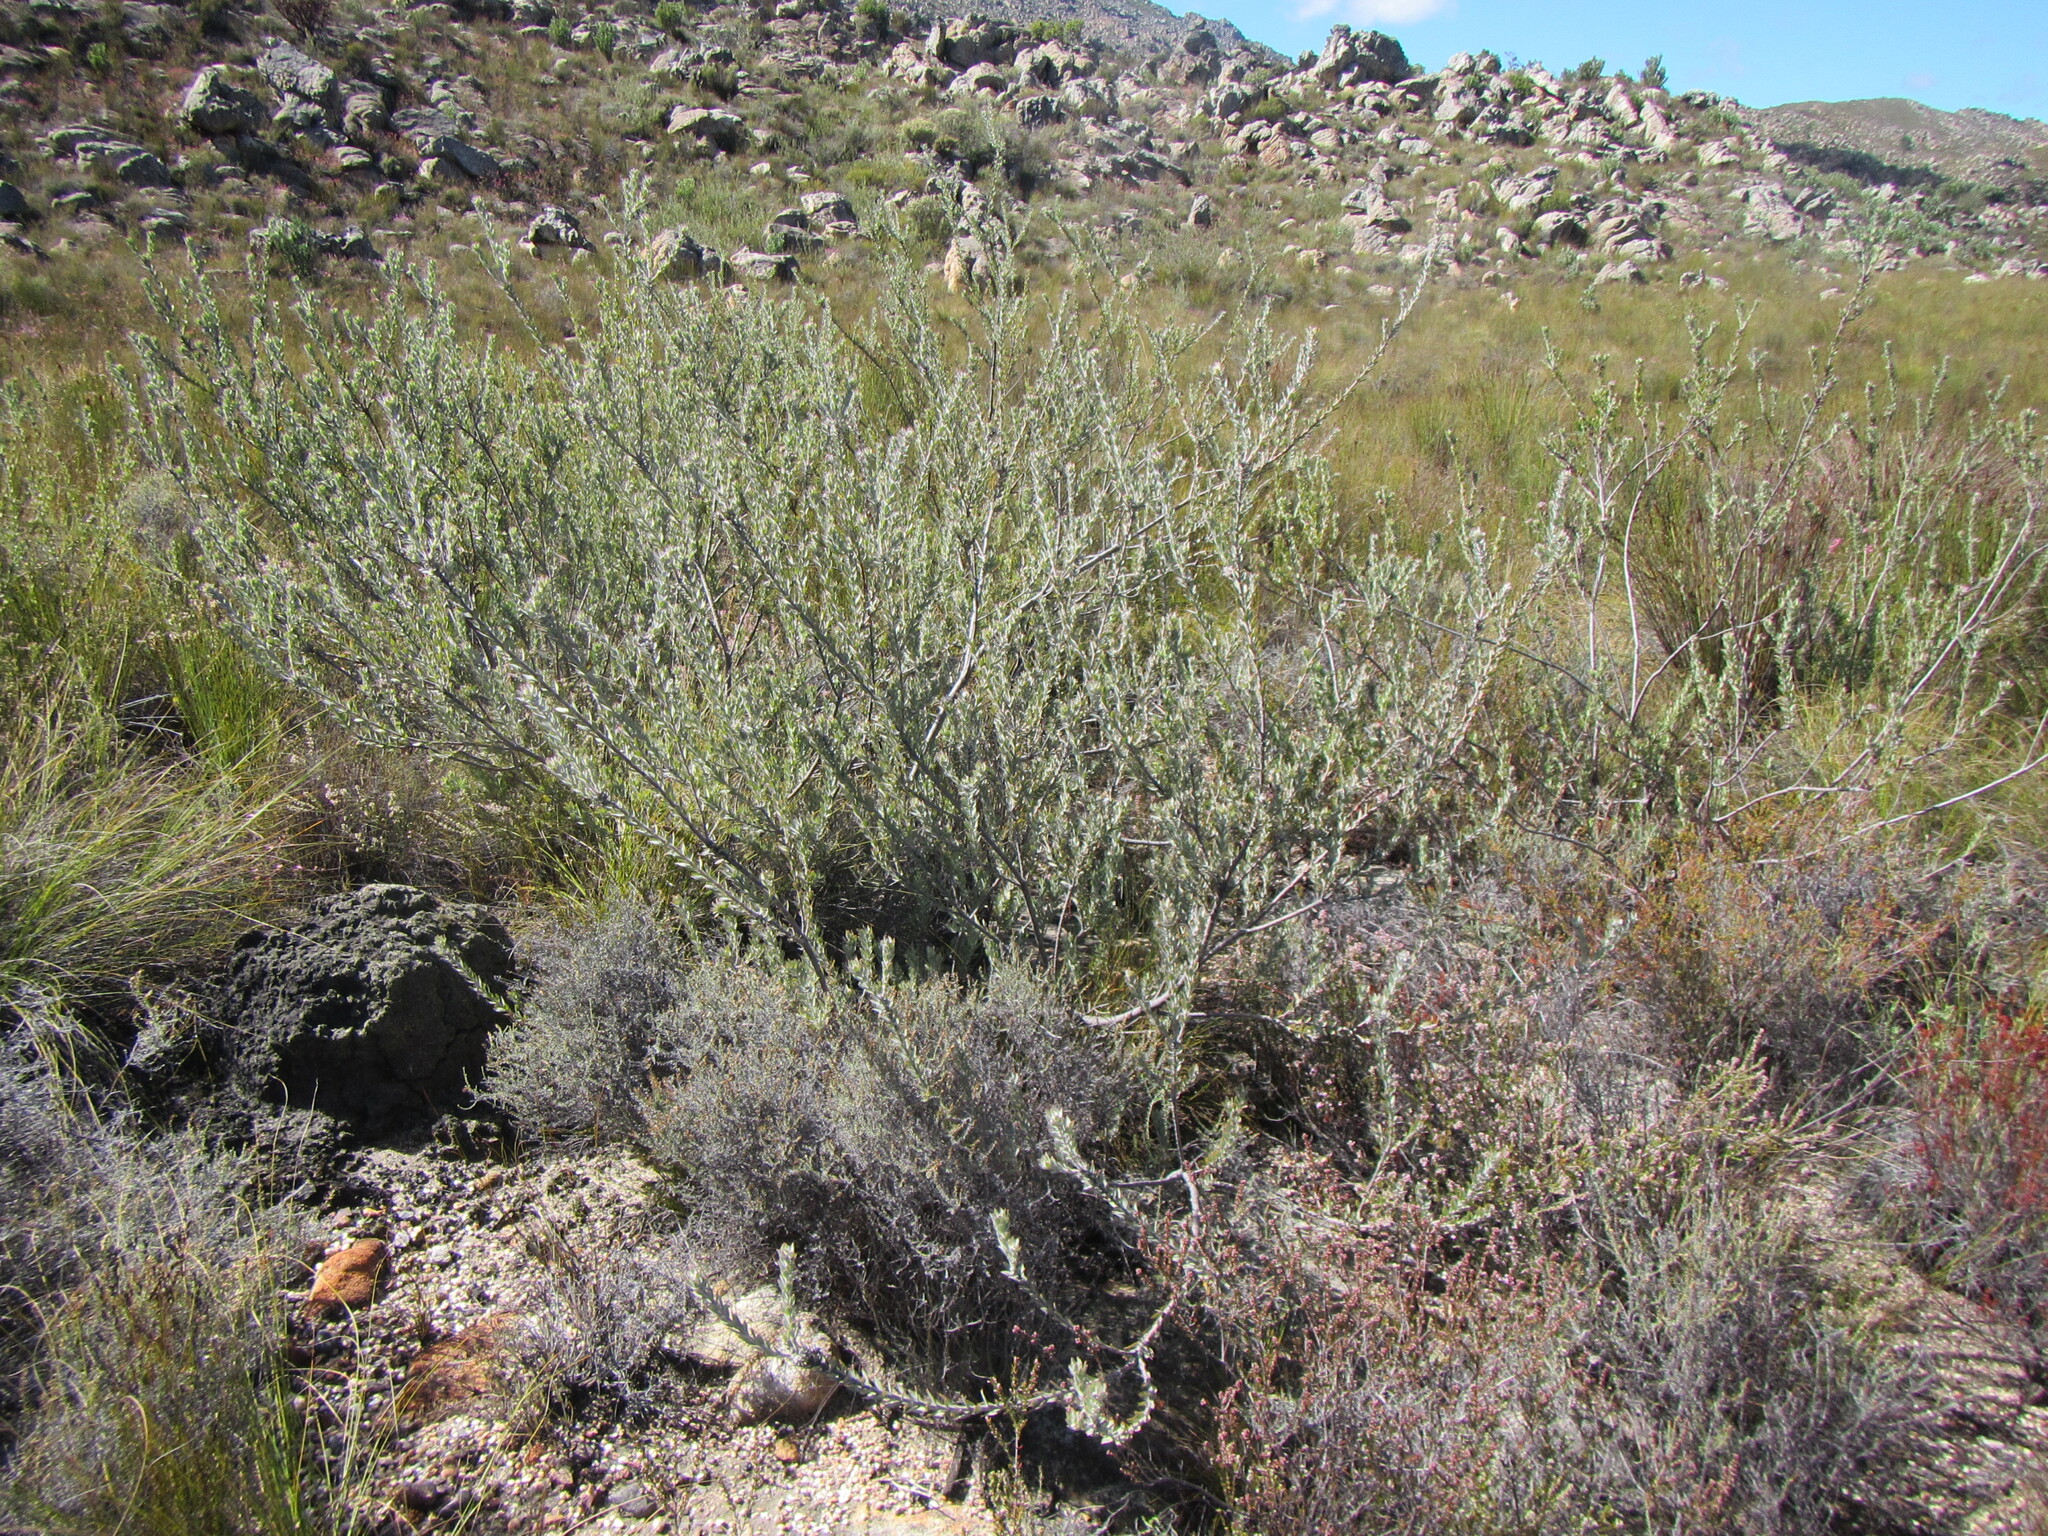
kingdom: Plantae
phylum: Tracheophyta
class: Magnoliopsida
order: Proteales
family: Proteaceae
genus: Leucospermum
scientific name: Leucospermum calligerum
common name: Arid pincushion
